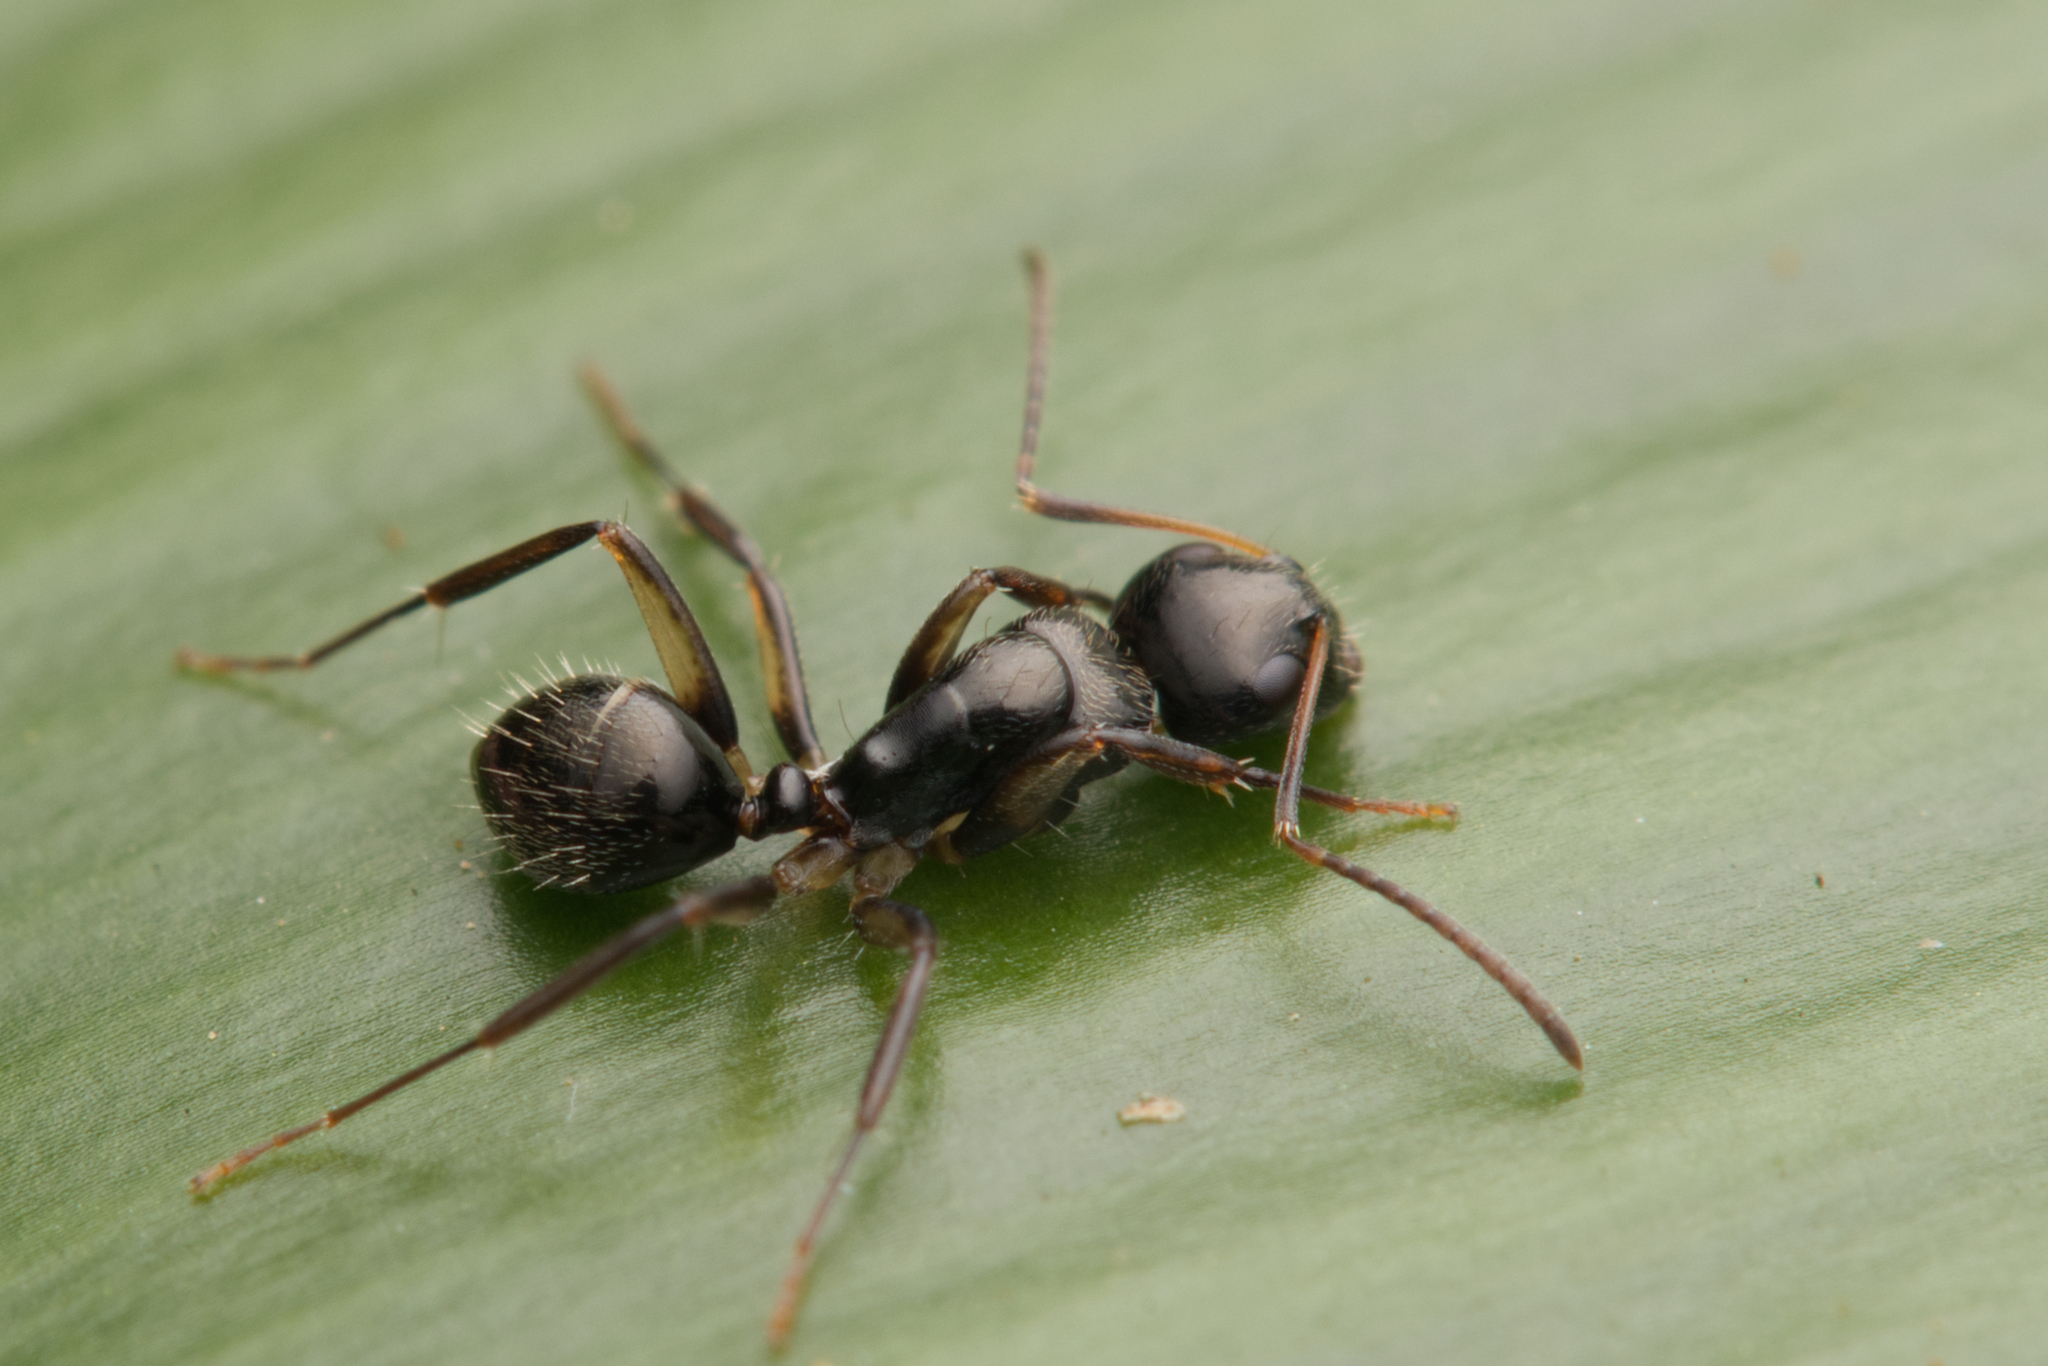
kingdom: Animalia
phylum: Arthropoda
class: Insecta
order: Hymenoptera
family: Formicidae
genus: Camponotus
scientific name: Camponotus froggatti
